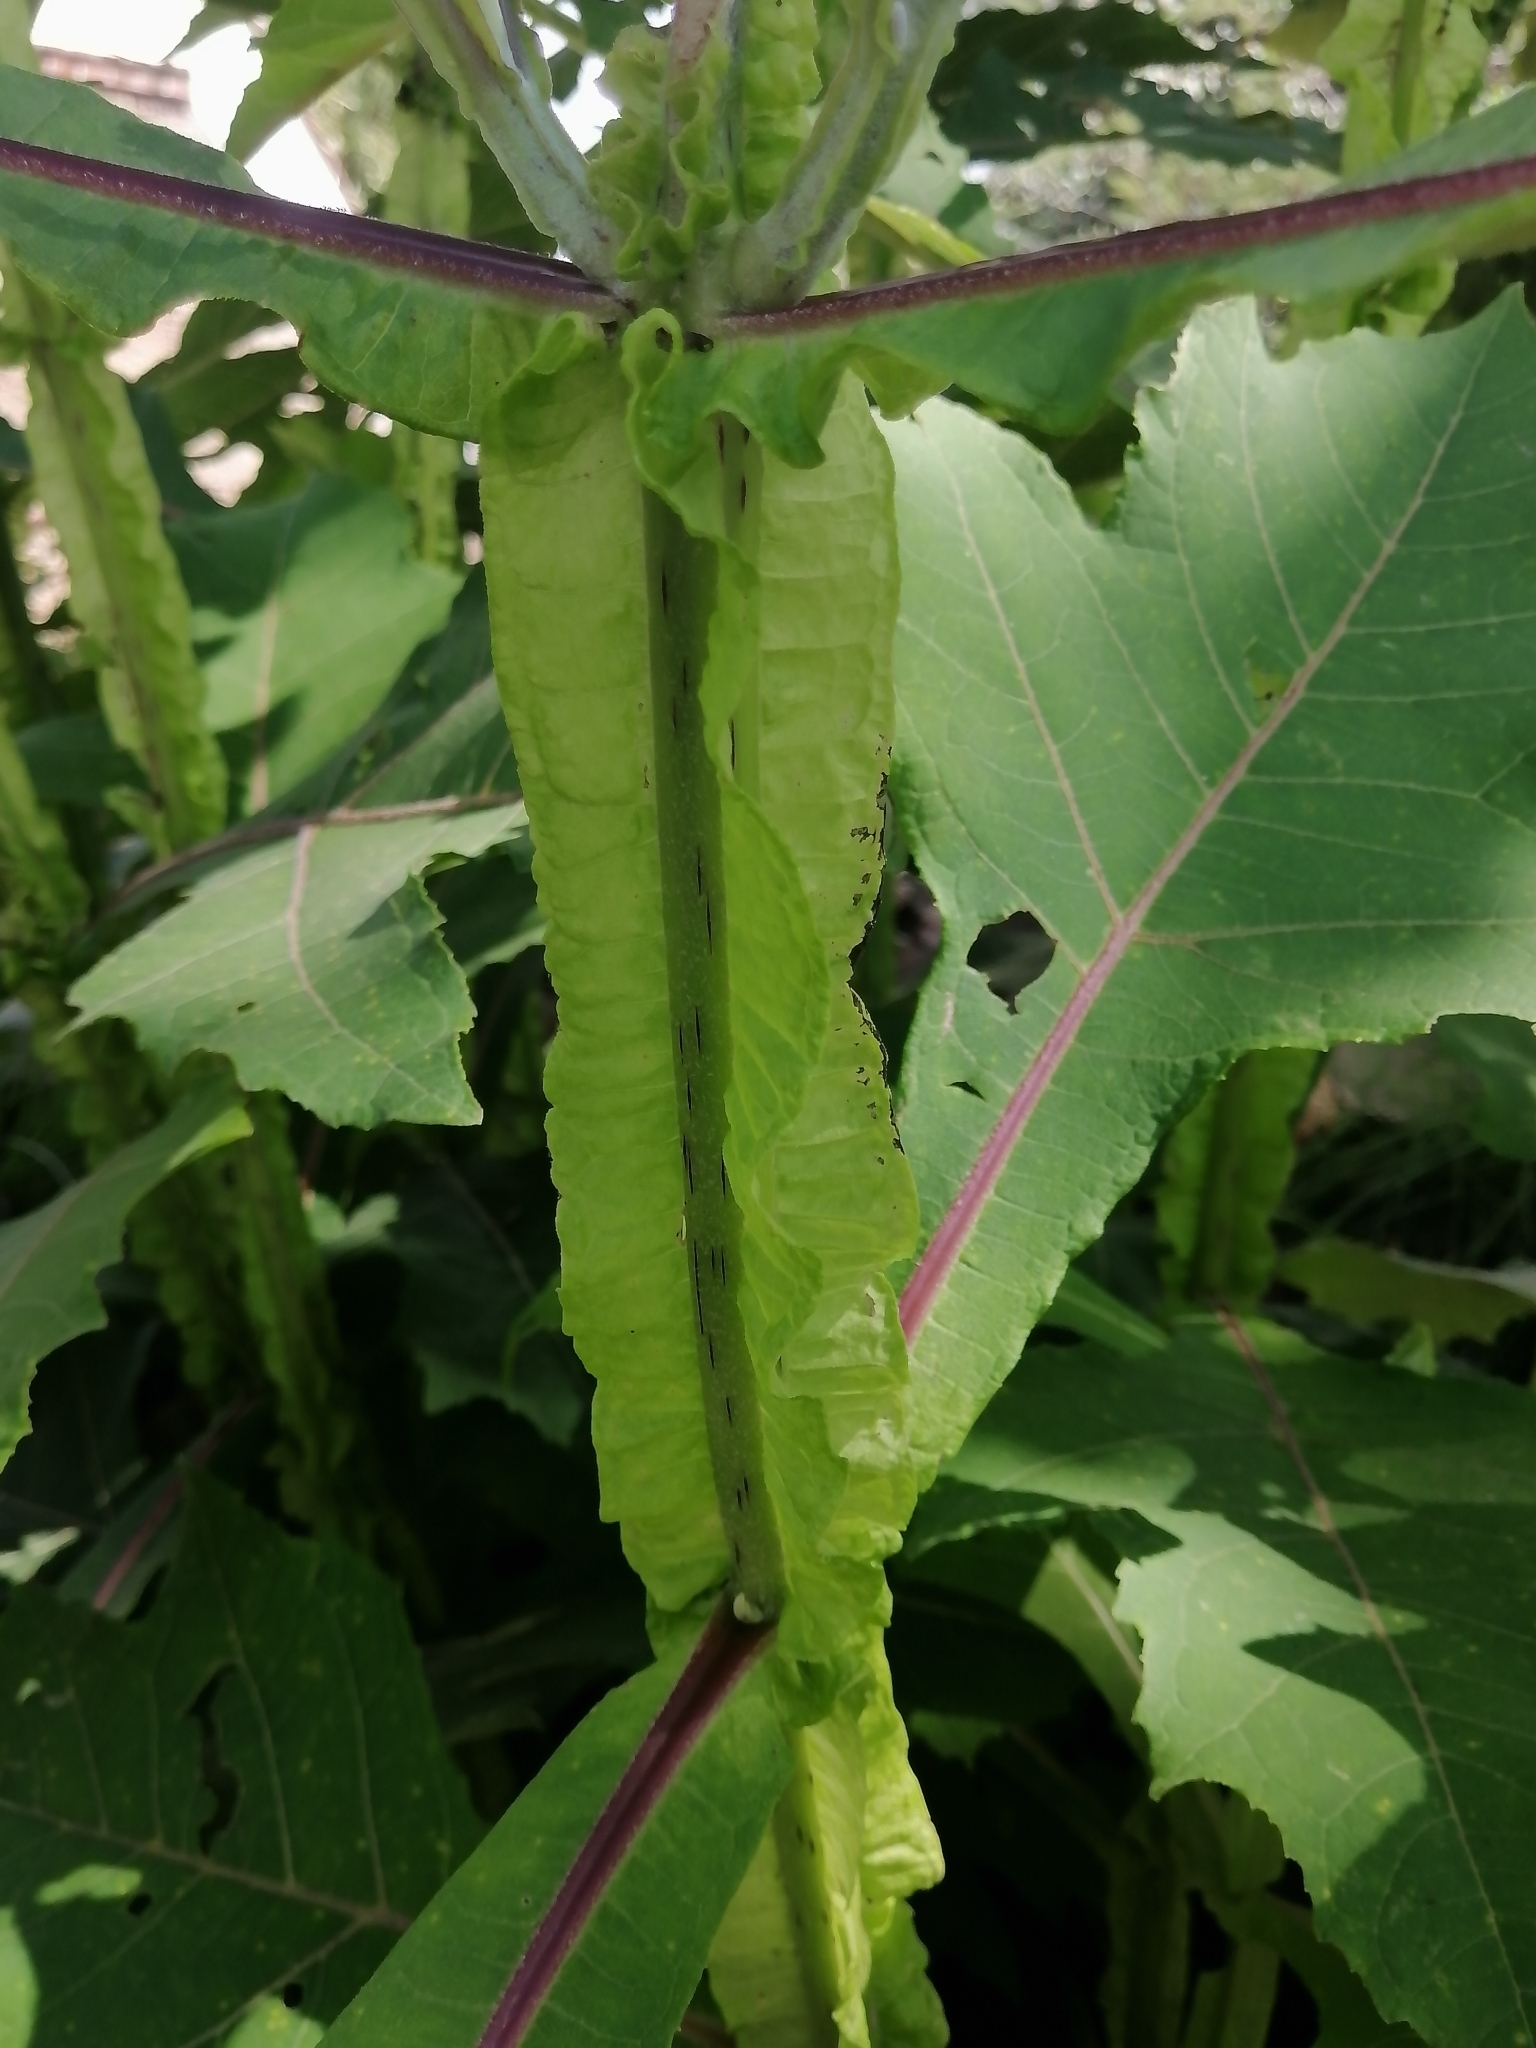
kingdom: Plantae
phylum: Tracheophyta
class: Magnoliopsida
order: Asterales
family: Asteraceae
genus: Verbesina
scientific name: Verbesina fastigiata
